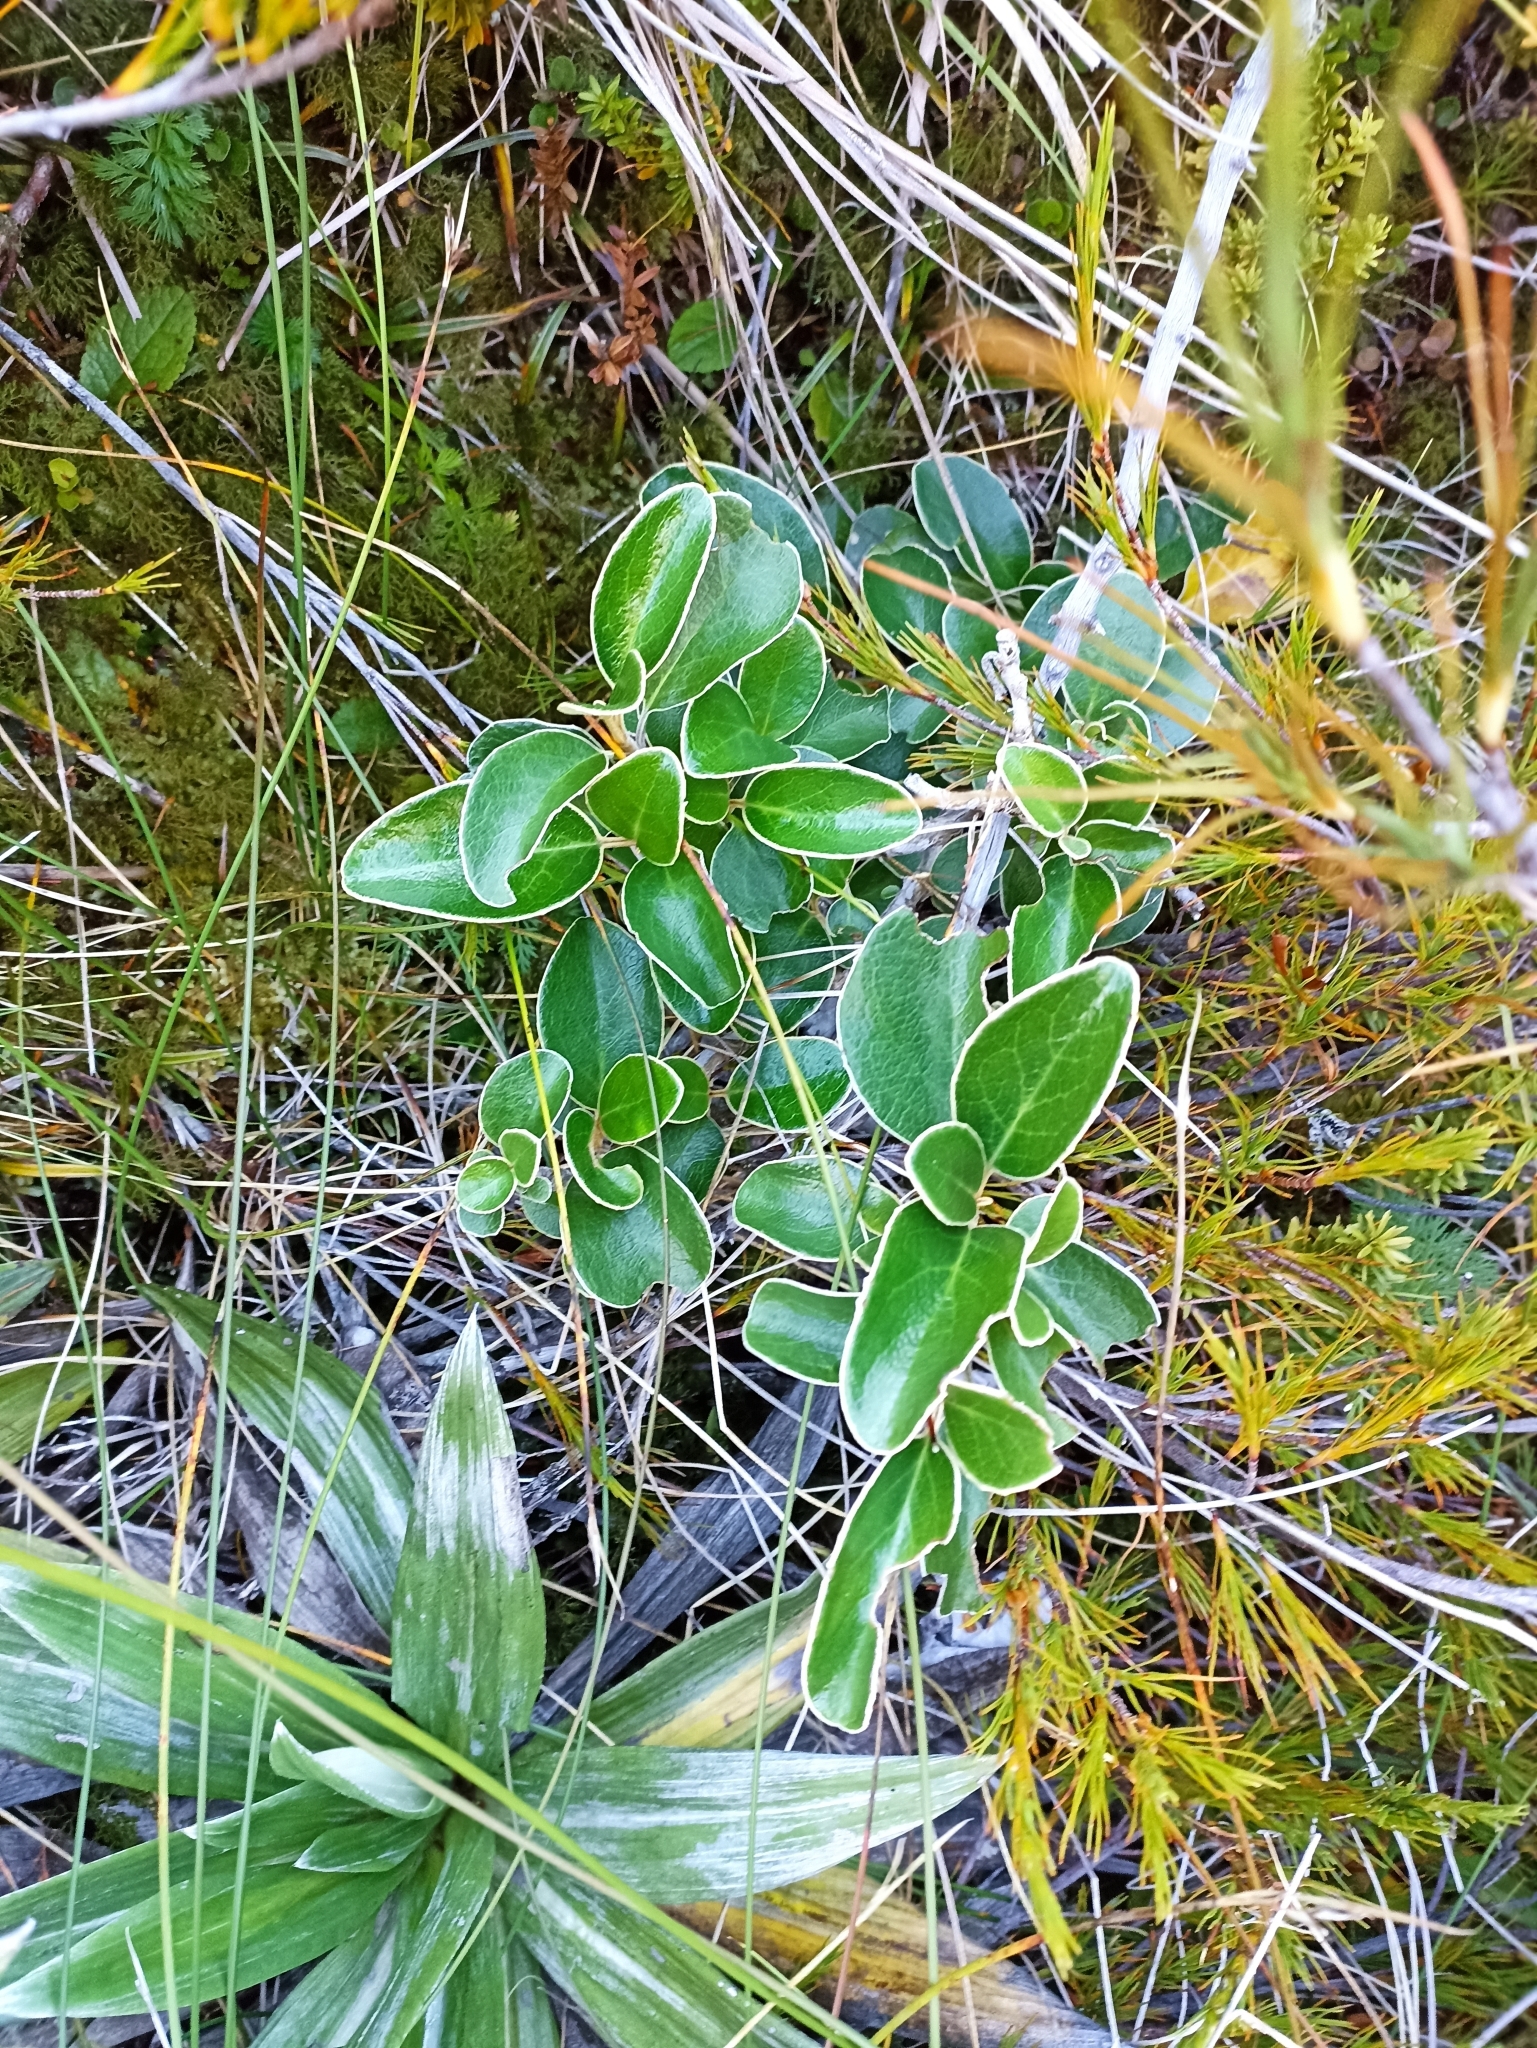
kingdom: Plantae
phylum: Tracheophyta
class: Magnoliopsida
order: Asterales
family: Asteraceae
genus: Brachyglottis
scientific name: Brachyglottis elaeagnifolia
